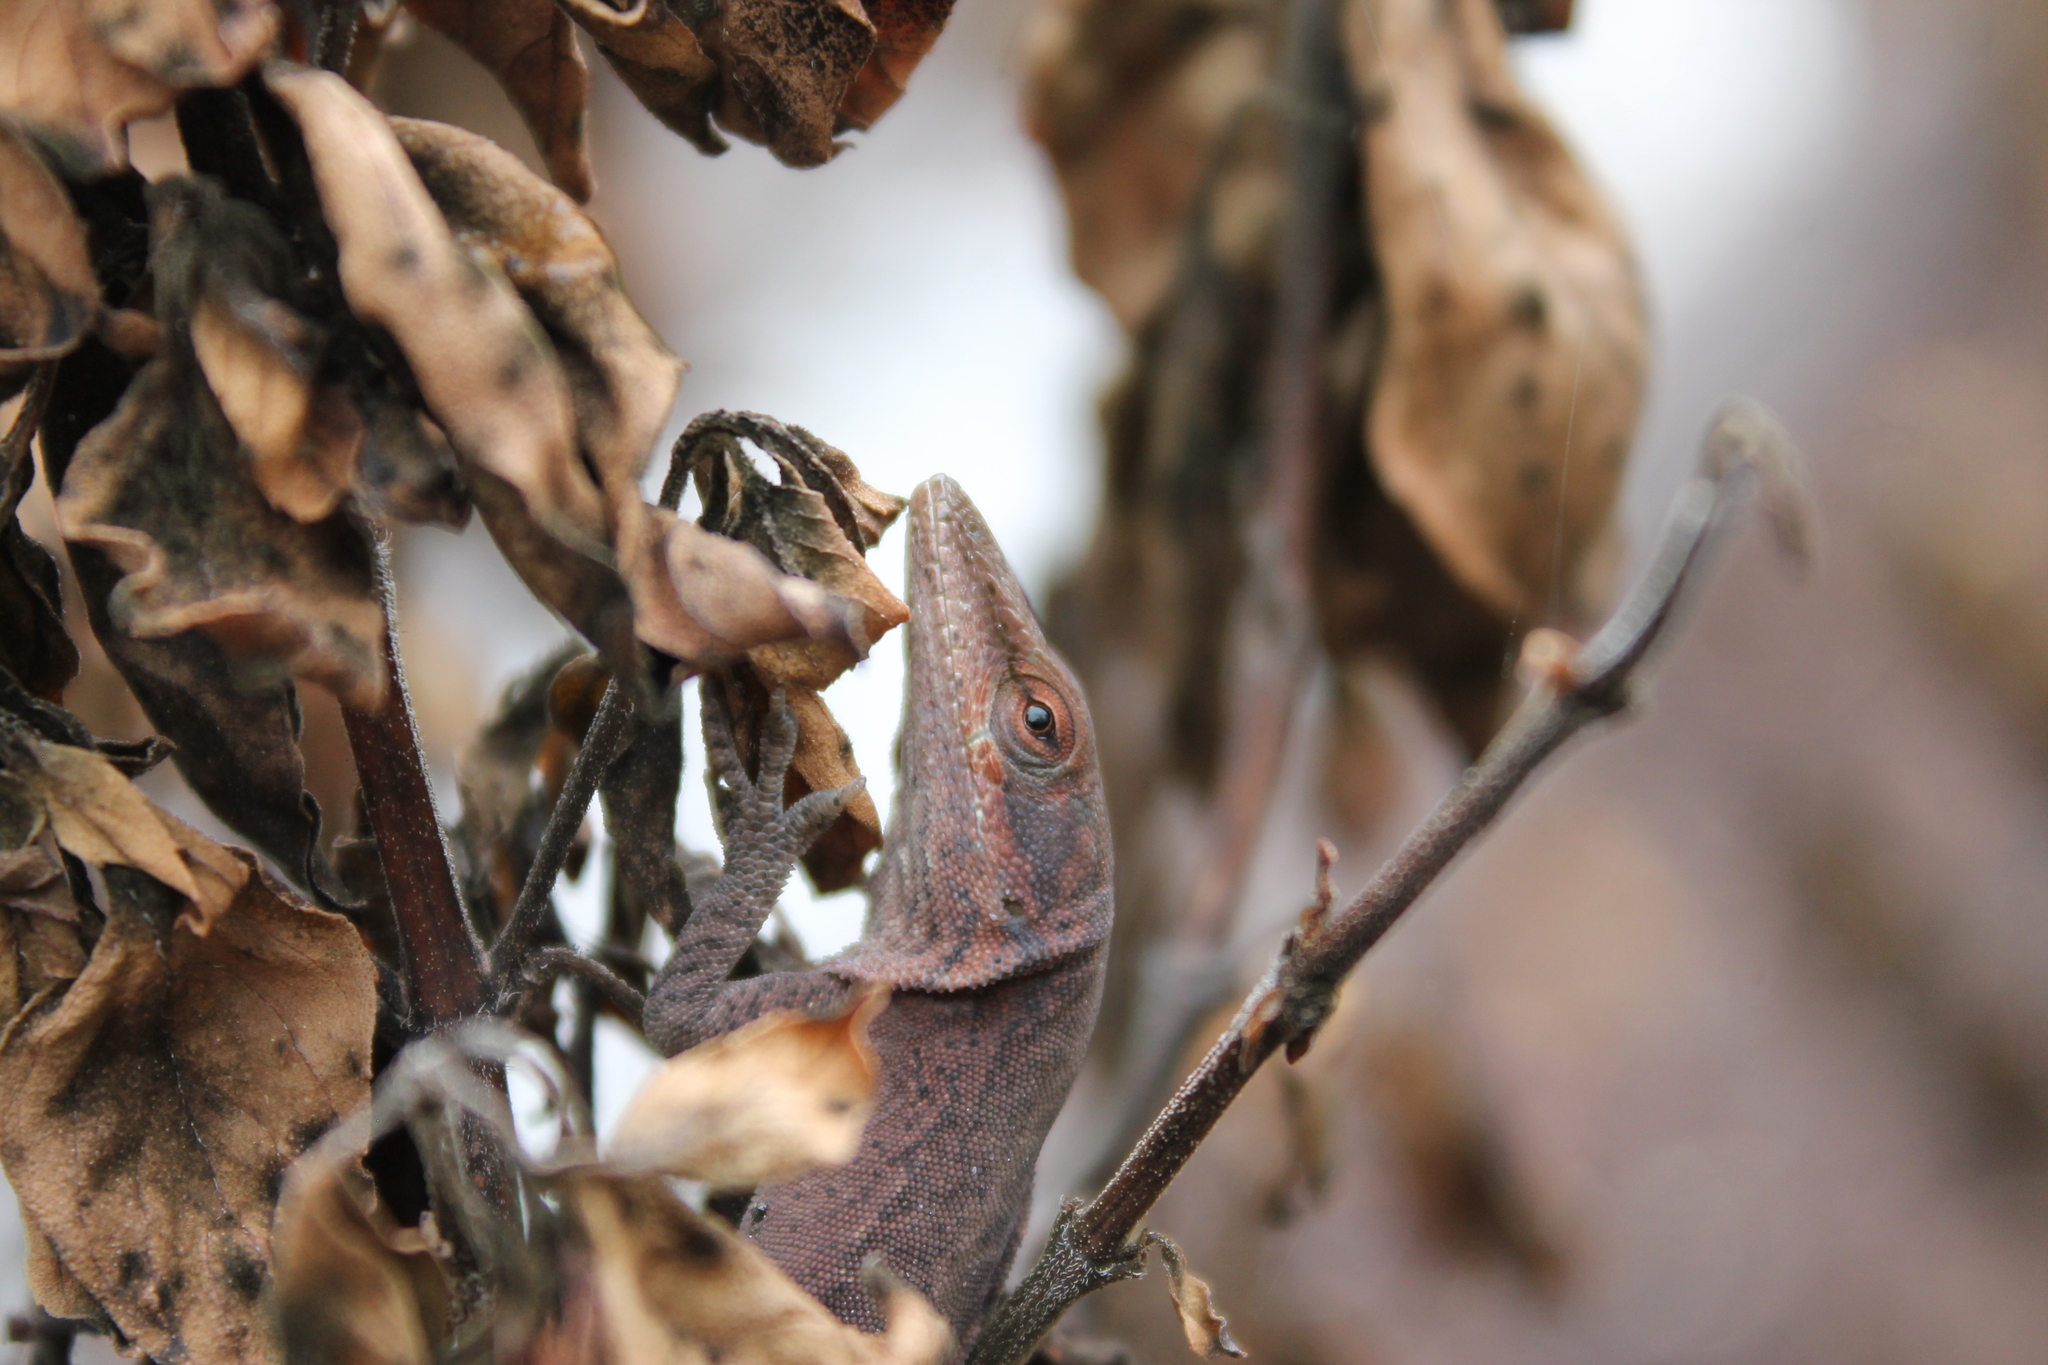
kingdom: Animalia
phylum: Chordata
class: Squamata
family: Dactyloidae
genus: Anolis
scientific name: Anolis carolinensis
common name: Green anole
